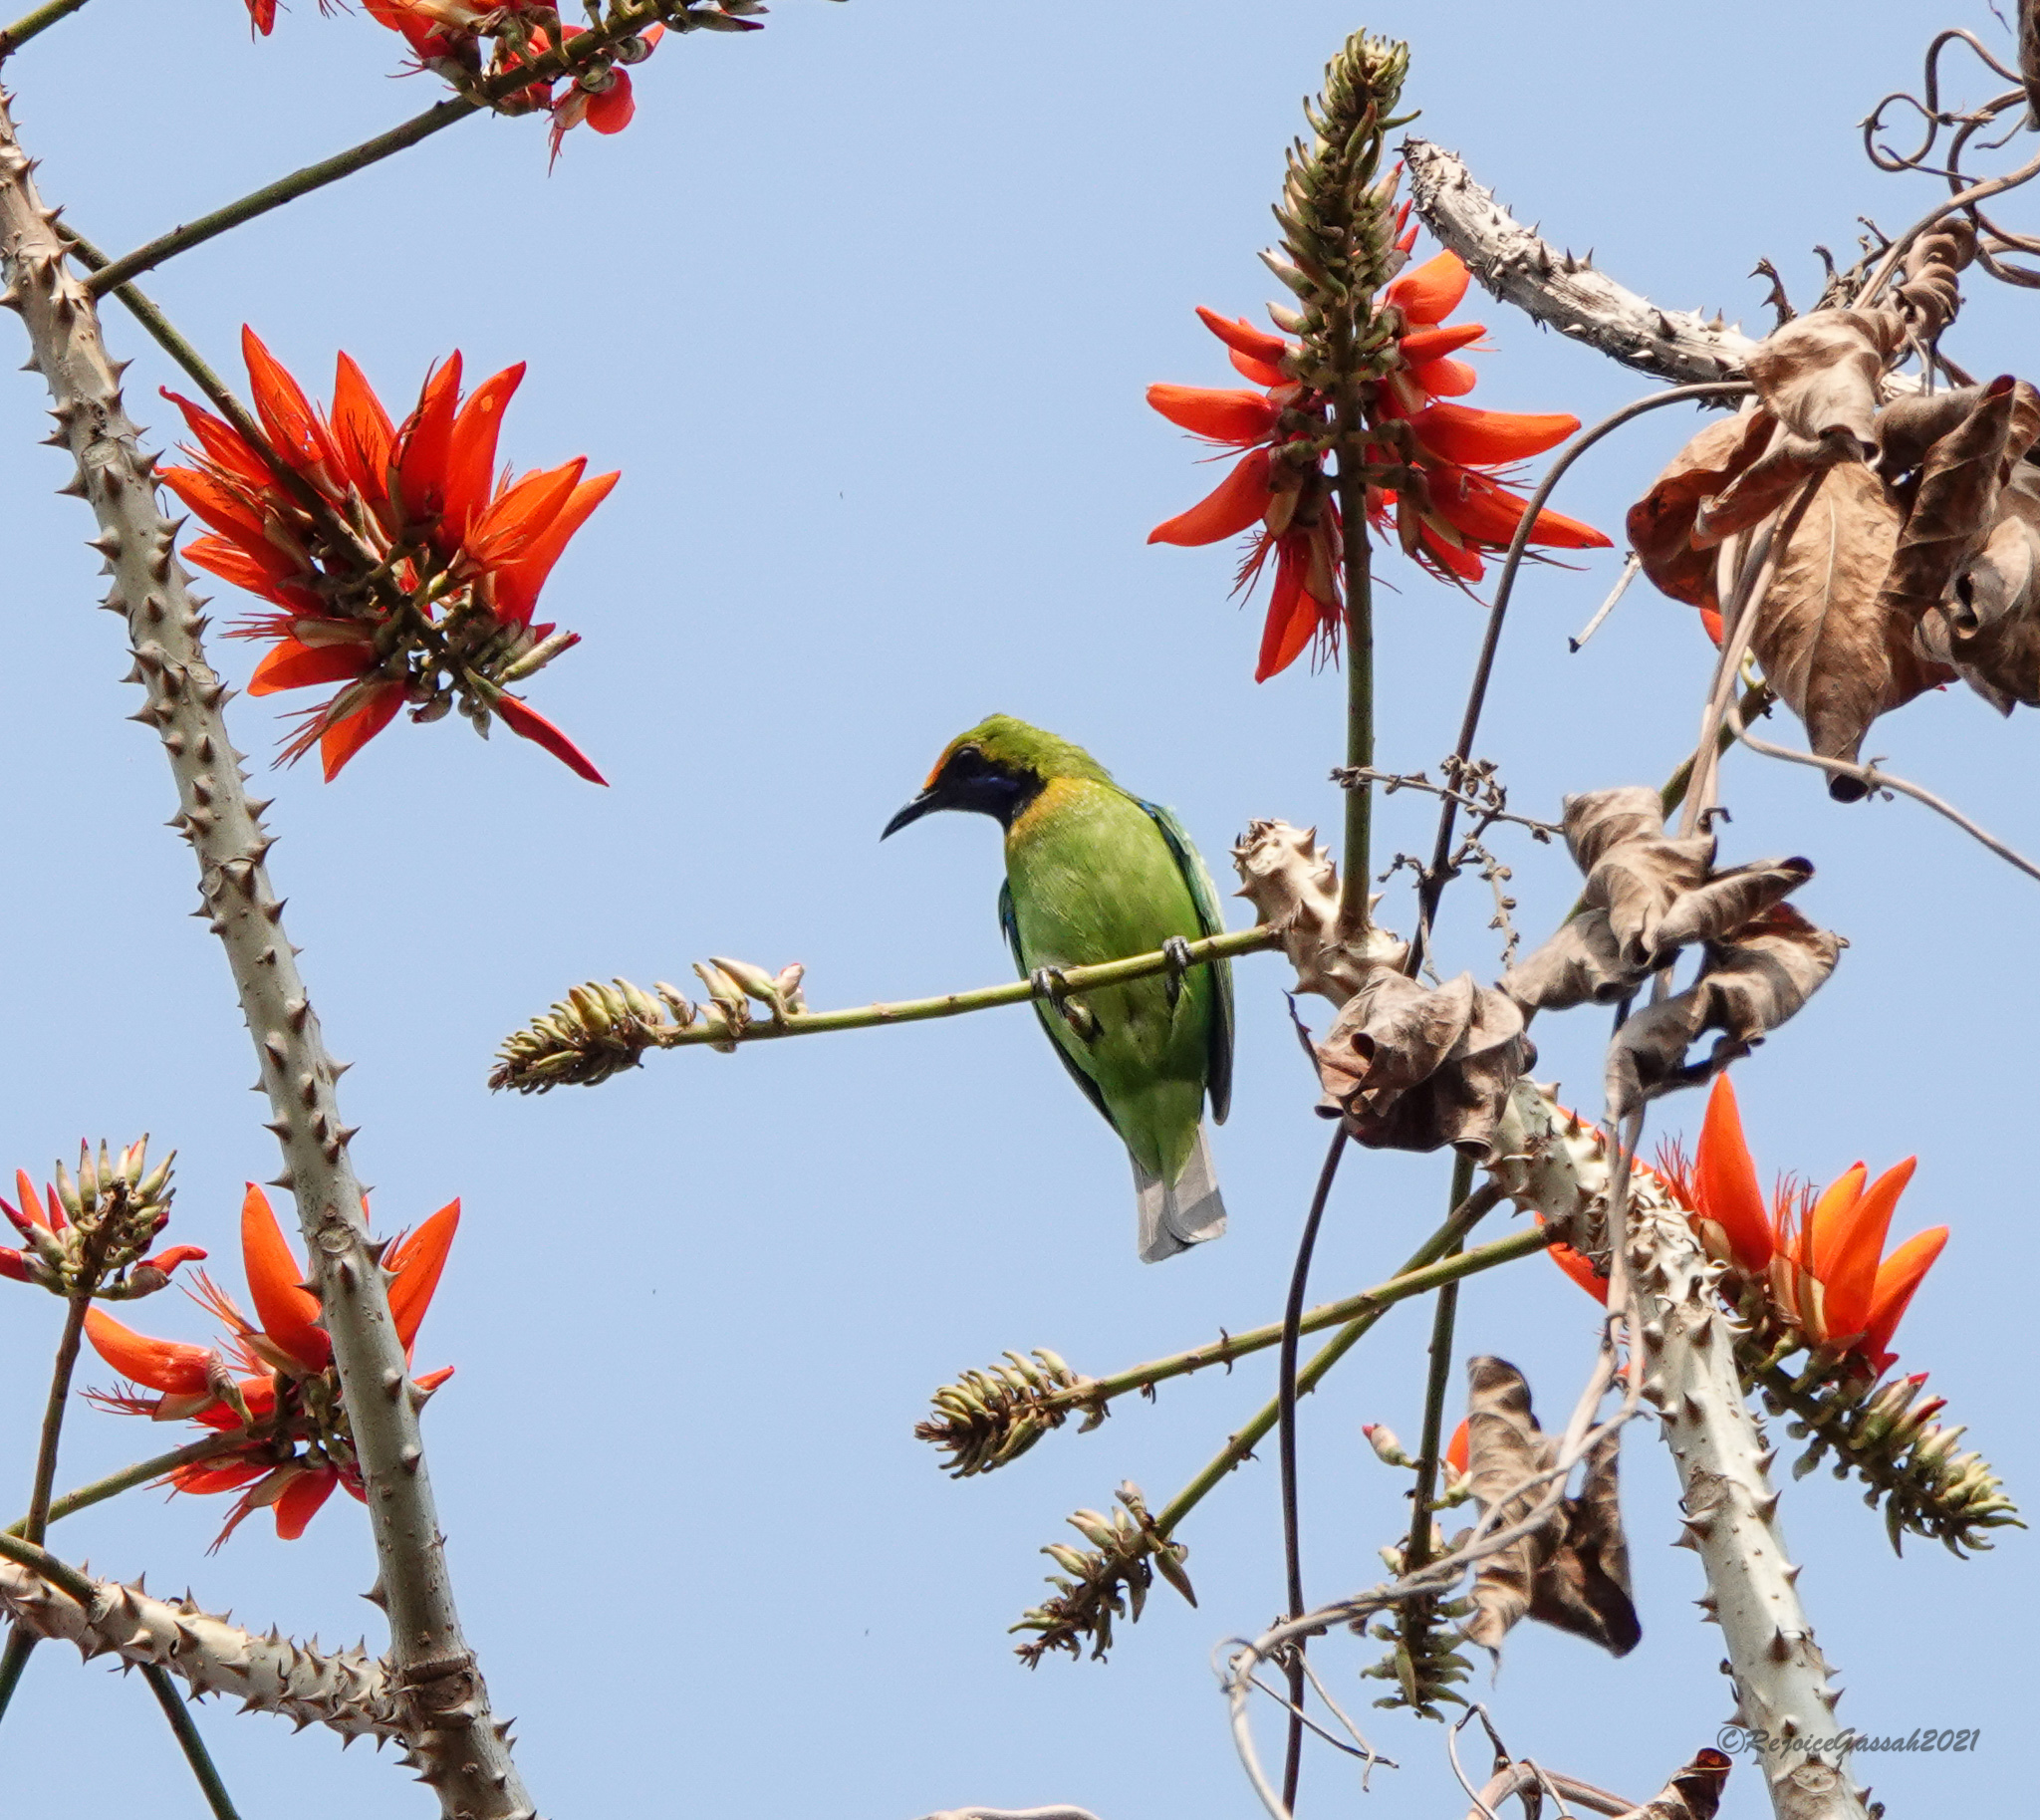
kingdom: Animalia
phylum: Chordata
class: Aves
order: Passeriformes
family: Chloropseidae
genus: Chloropsis
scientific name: Chloropsis aurifrons
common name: Golden-fronted leafbird
